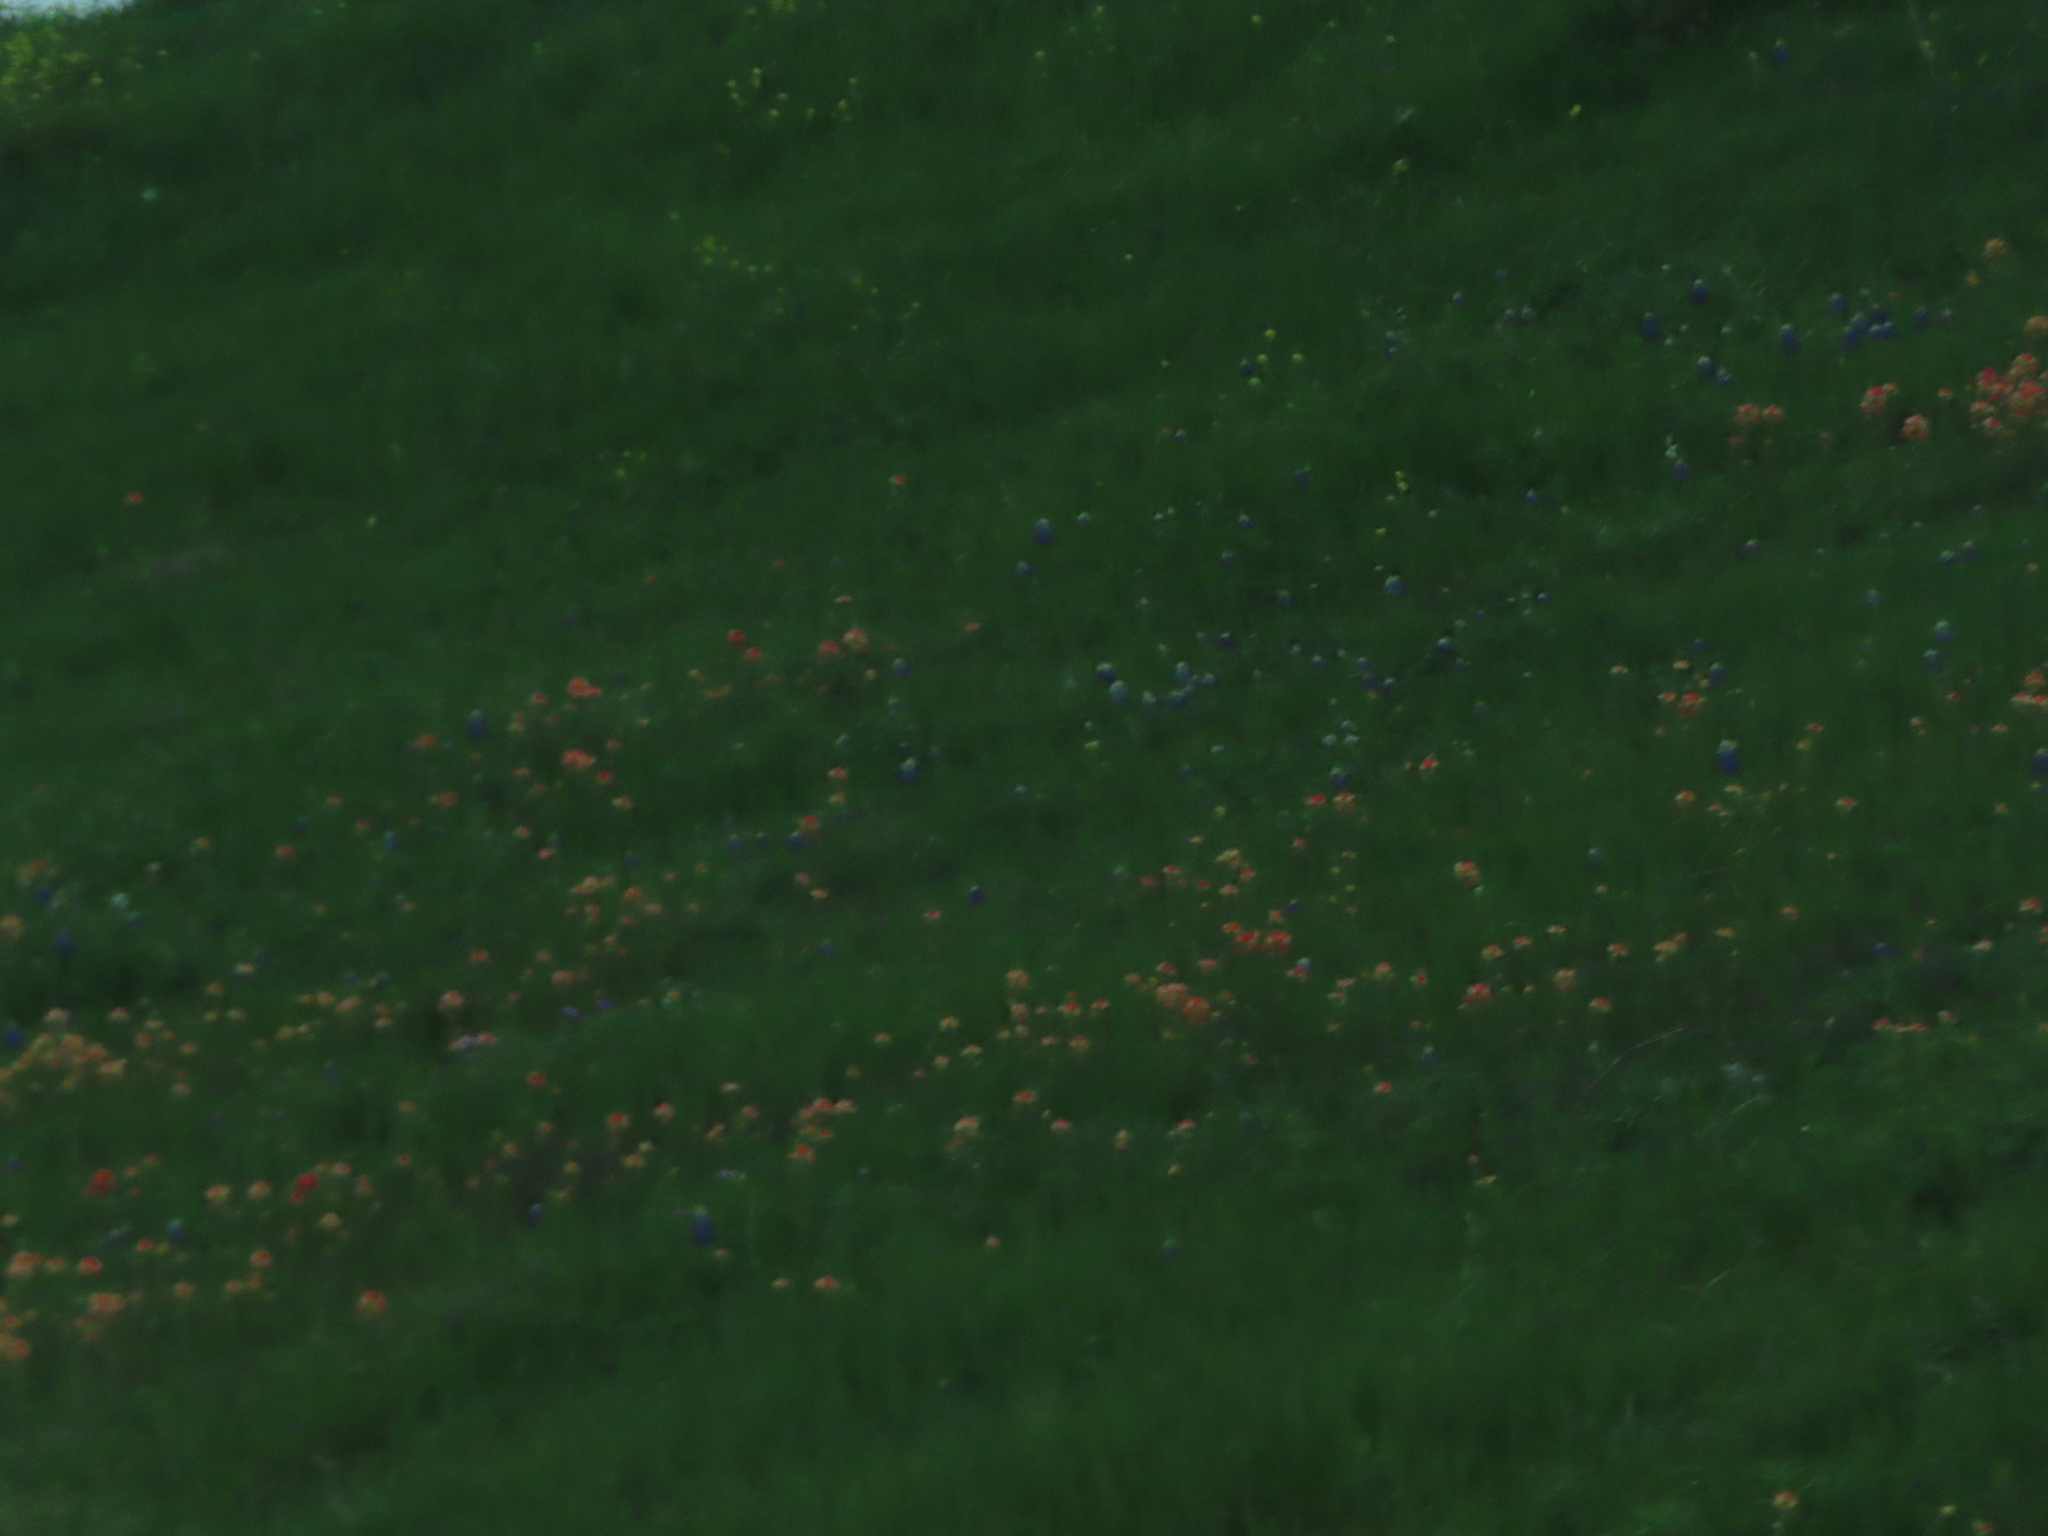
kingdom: Plantae
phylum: Tracheophyta
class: Magnoliopsida
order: Lamiales
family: Orobanchaceae
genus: Castilleja
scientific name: Castilleja indivisa
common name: Texas paintbrush
